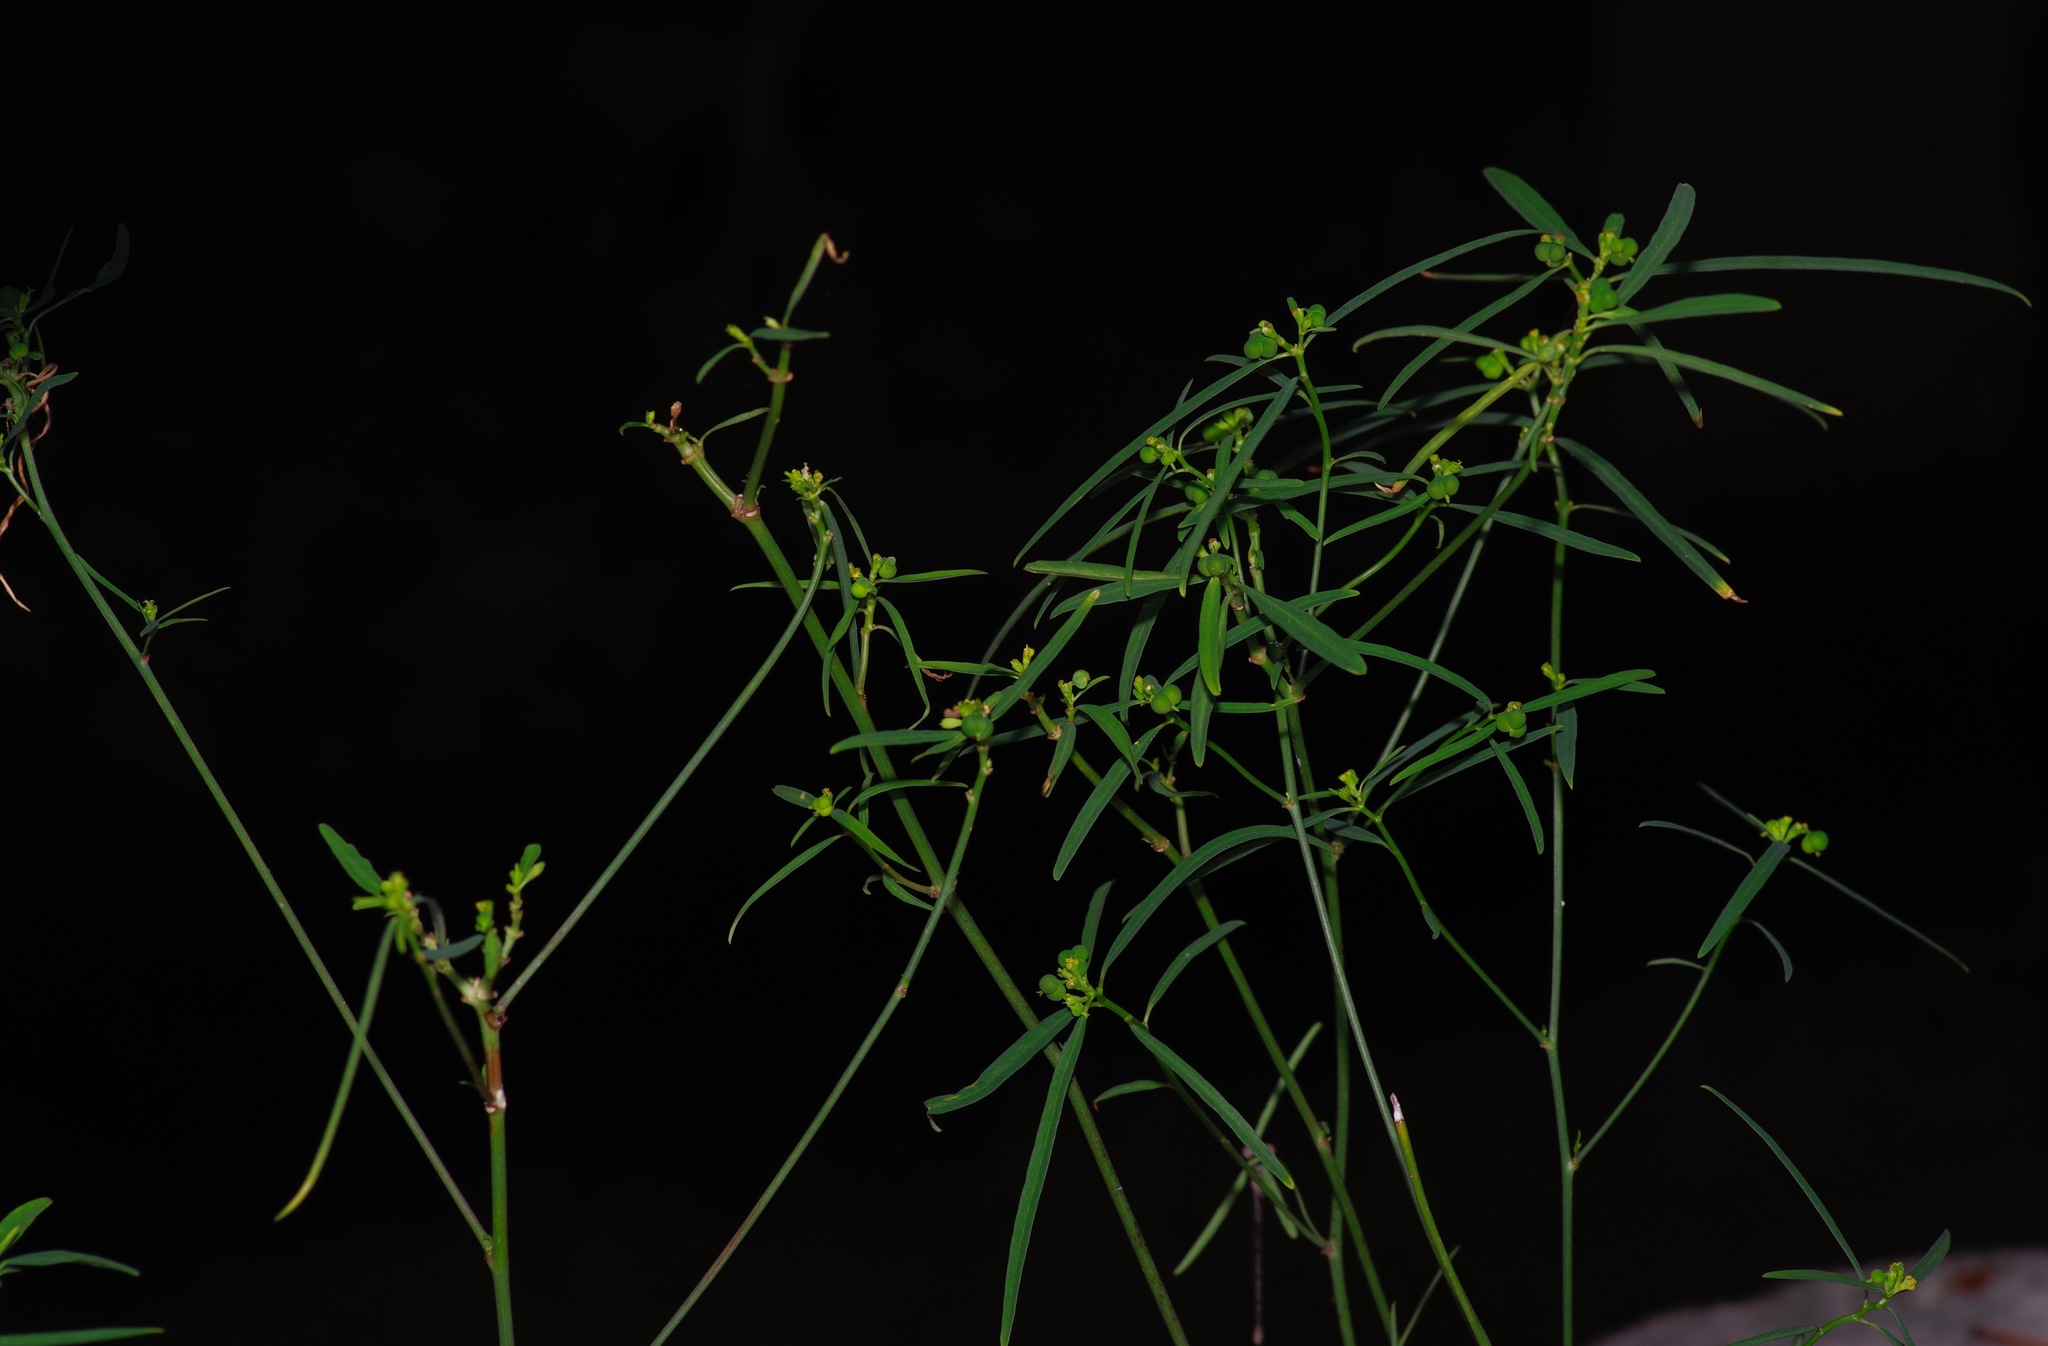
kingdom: Plantae
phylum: Tracheophyta
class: Magnoliopsida
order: Malpighiales
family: Euphorbiaceae
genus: Euphorbia
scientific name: Euphorbia heterophylla
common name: Mexican fireplant
